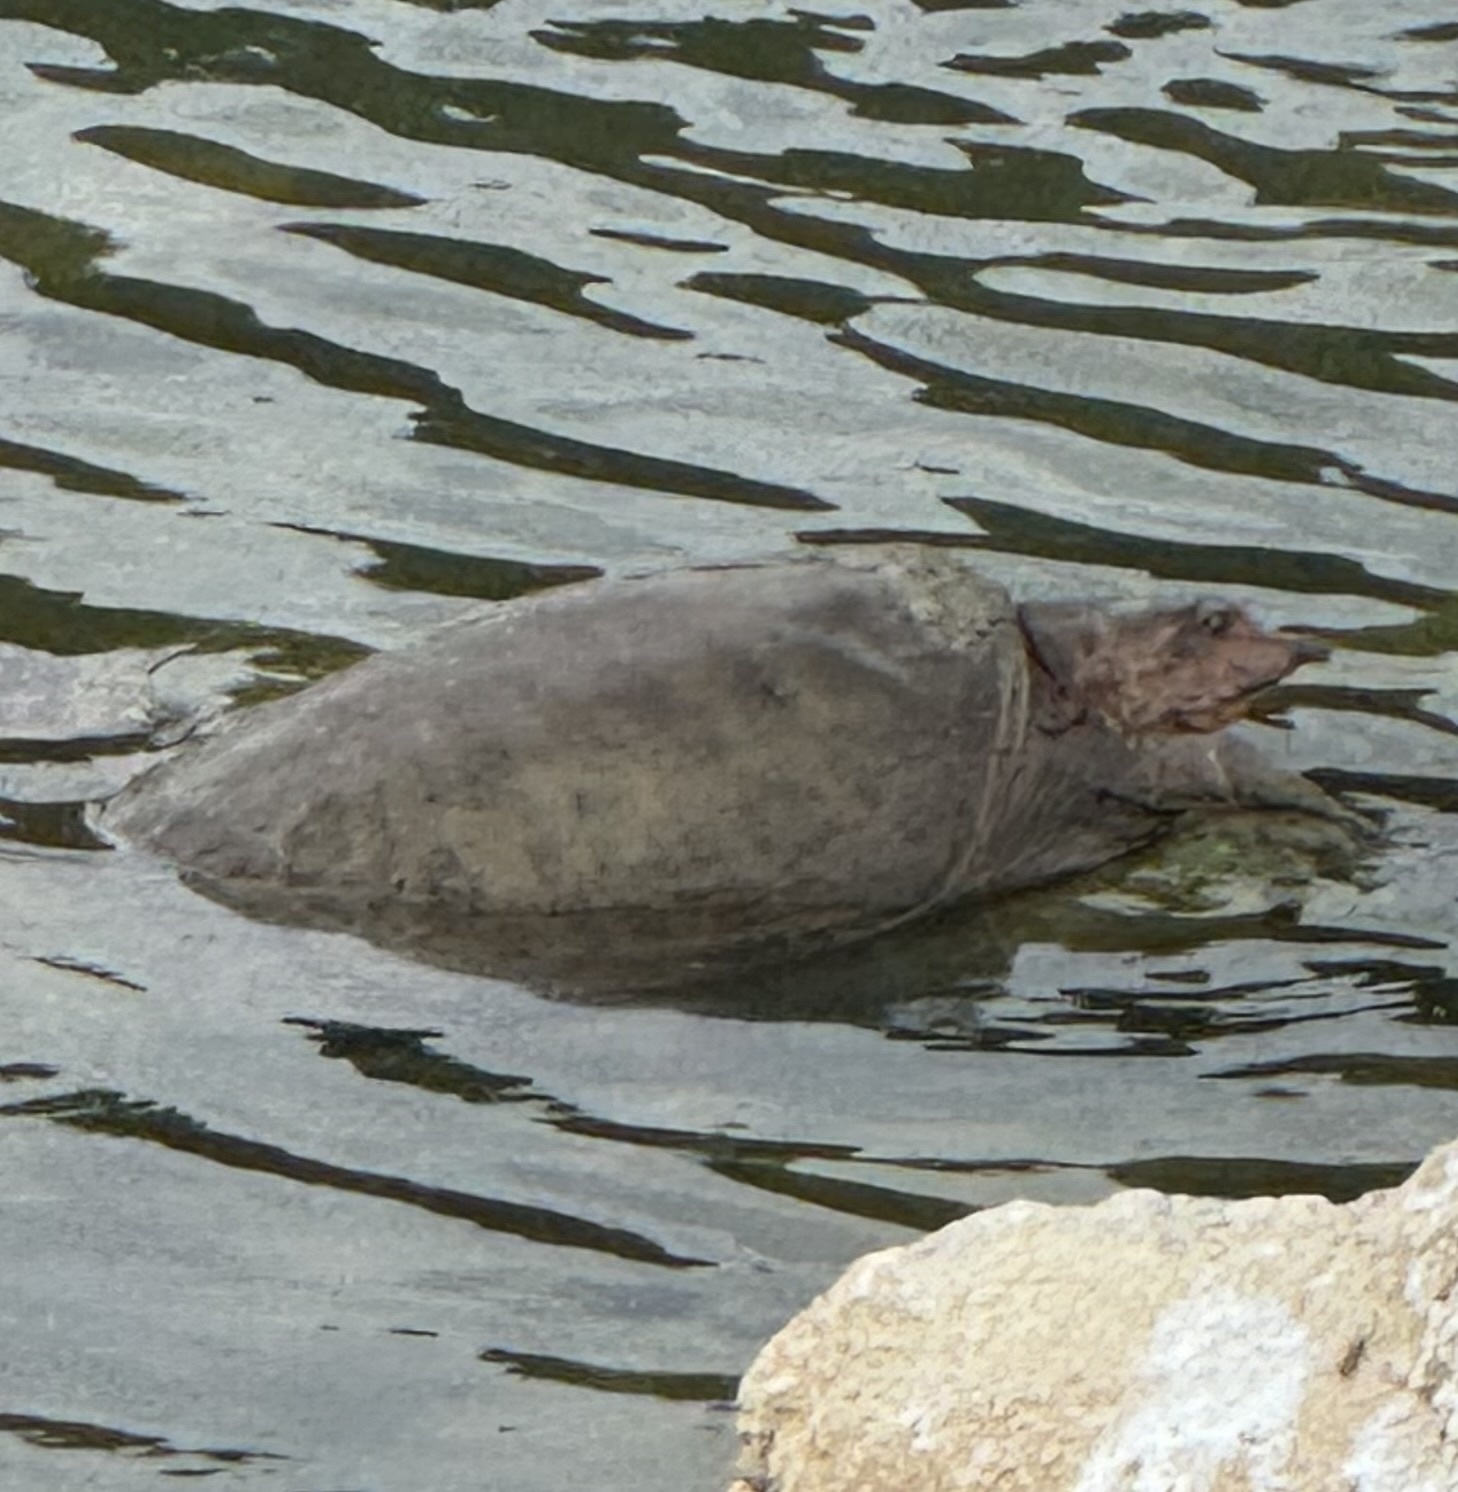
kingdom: Animalia
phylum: Chordata
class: Testudines
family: Trionychidae
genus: Apalone
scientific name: Apalone spinifera
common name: Spiny softshell turtle
